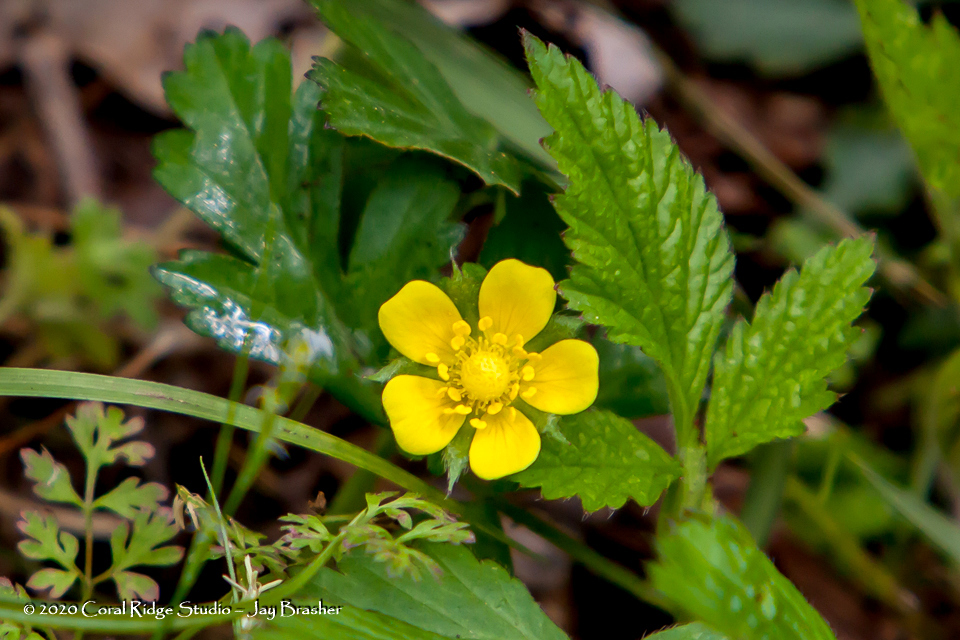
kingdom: Plantae
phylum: Tracheophyta
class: Magnoliopsida
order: Rosales
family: Rosaceae
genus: Potentilla
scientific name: Potentilla indica
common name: Yellow-flowered strawberry
